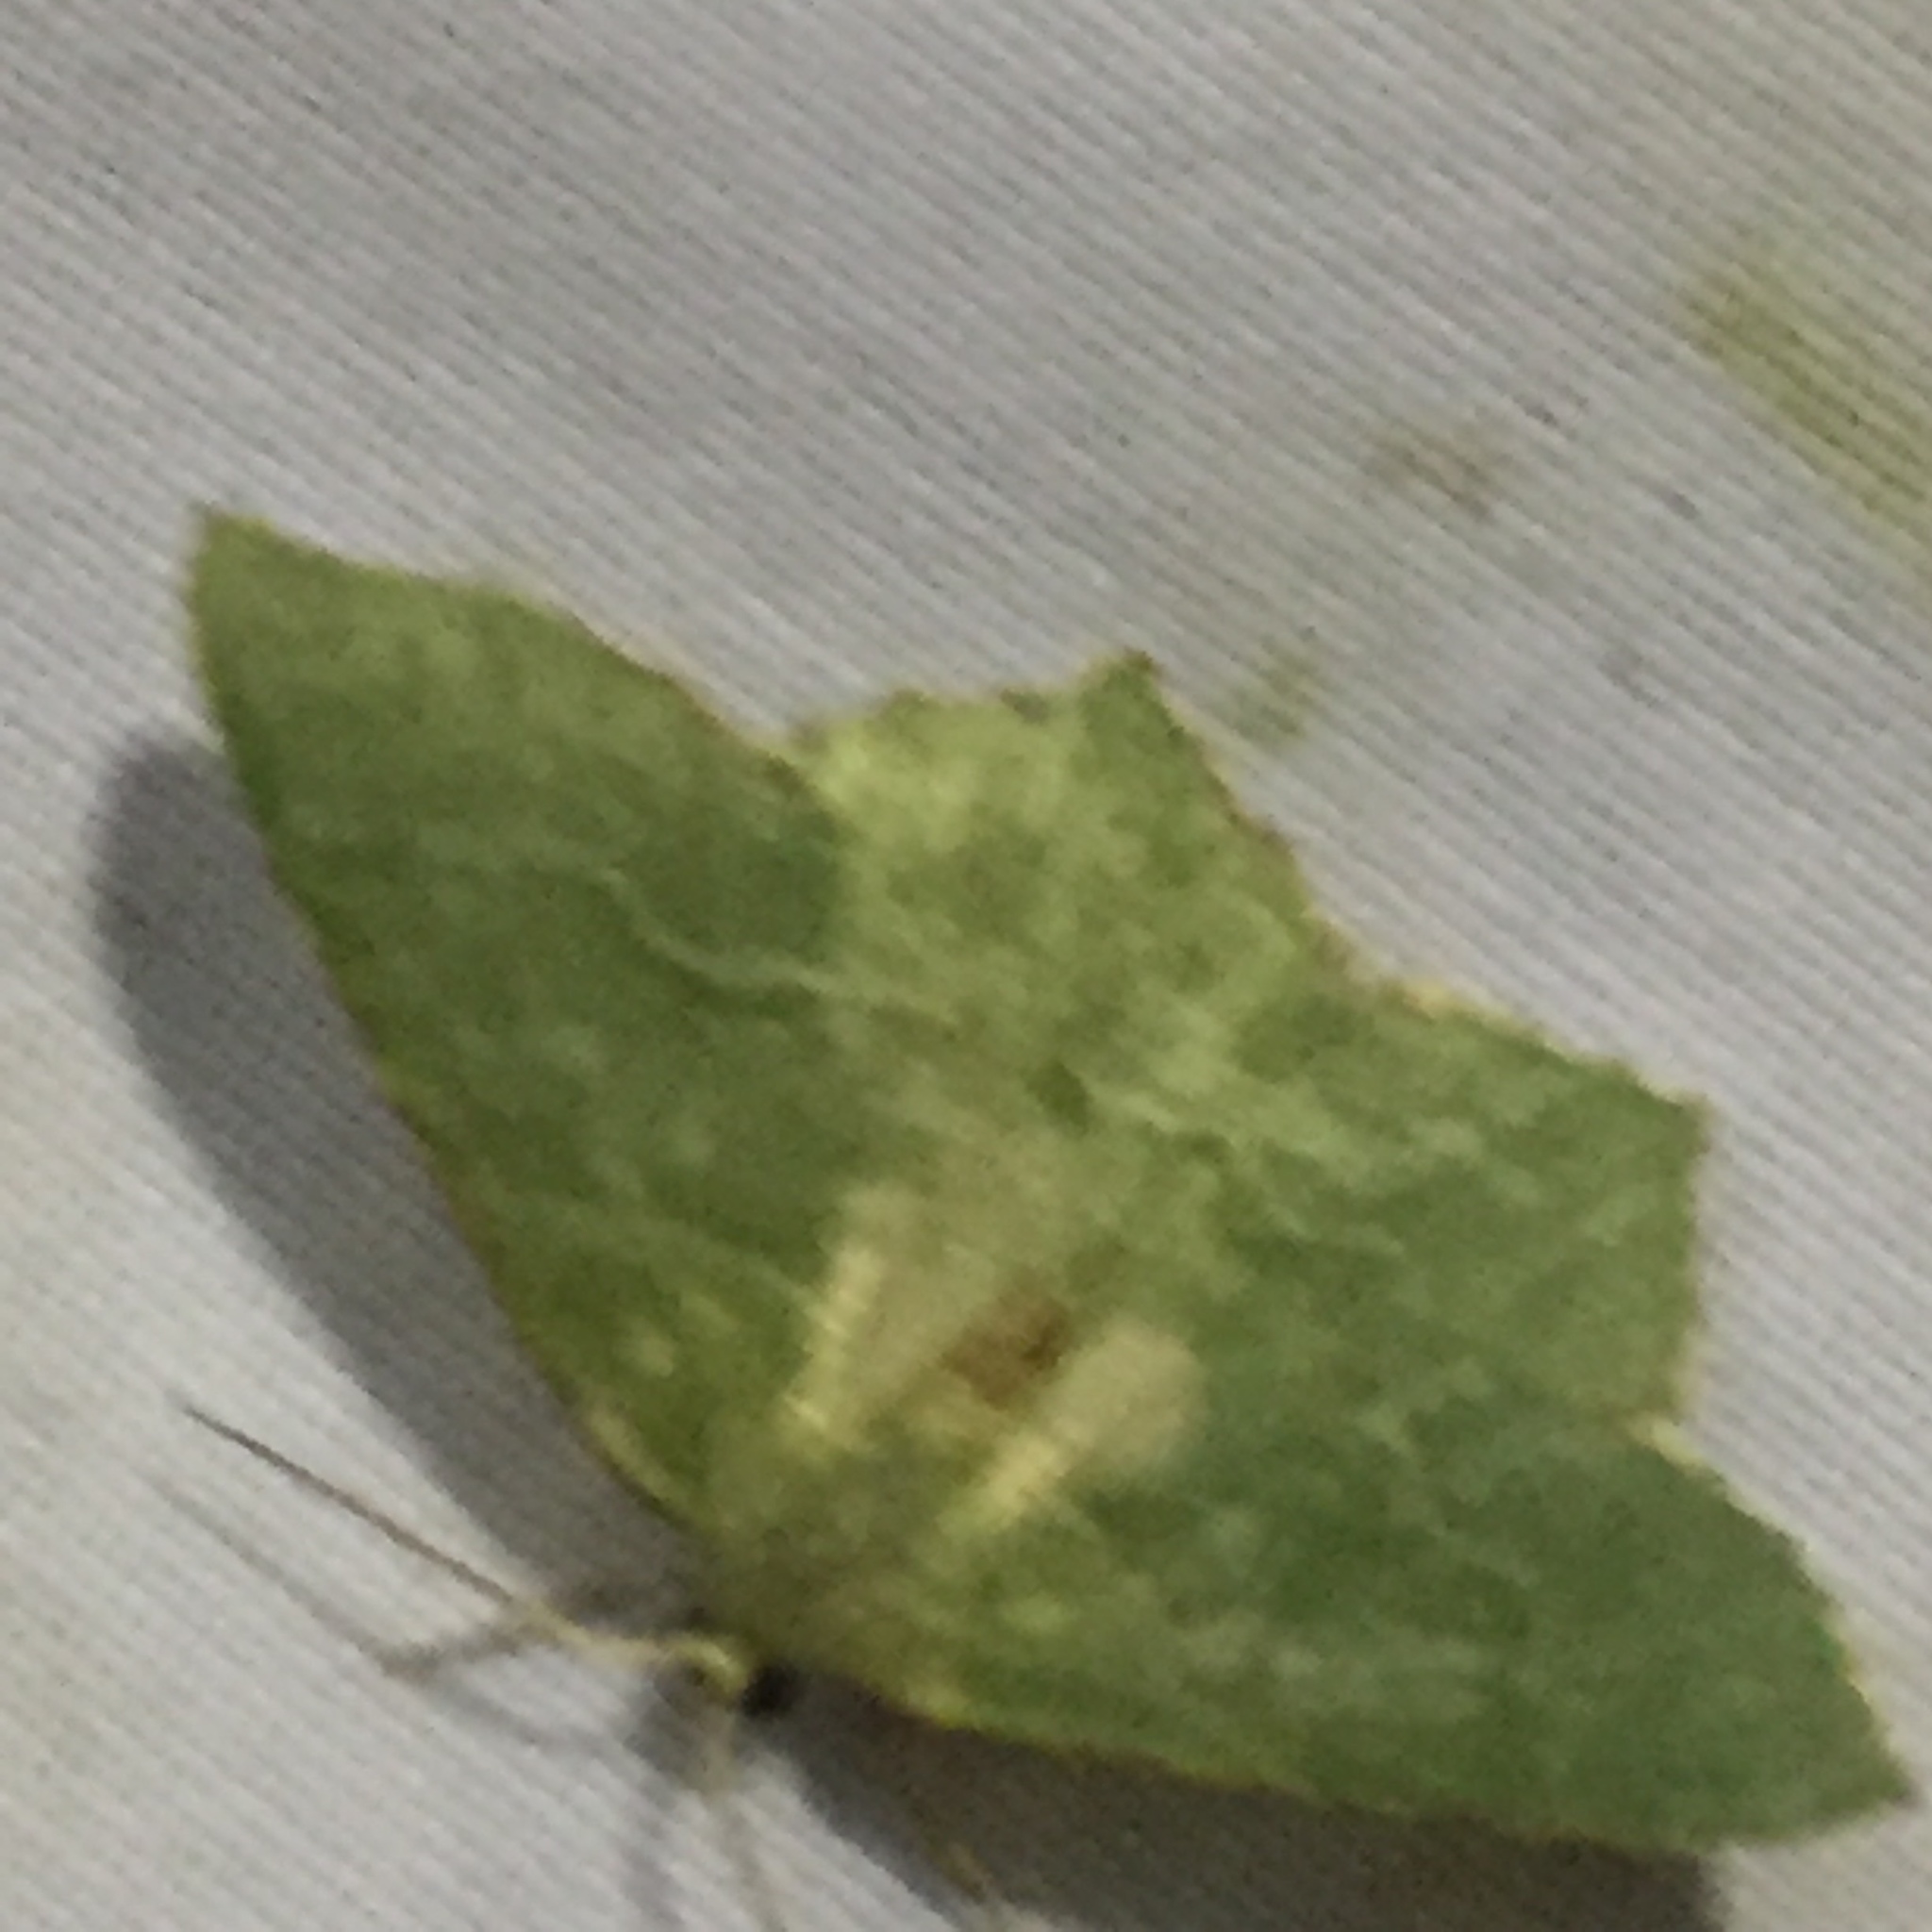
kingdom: Animalia
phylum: Arthropoda
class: Insecta
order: Lepidoptera
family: Geometridae
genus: Hemithea
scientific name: Hemithea aestivaria
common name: Common emerald
